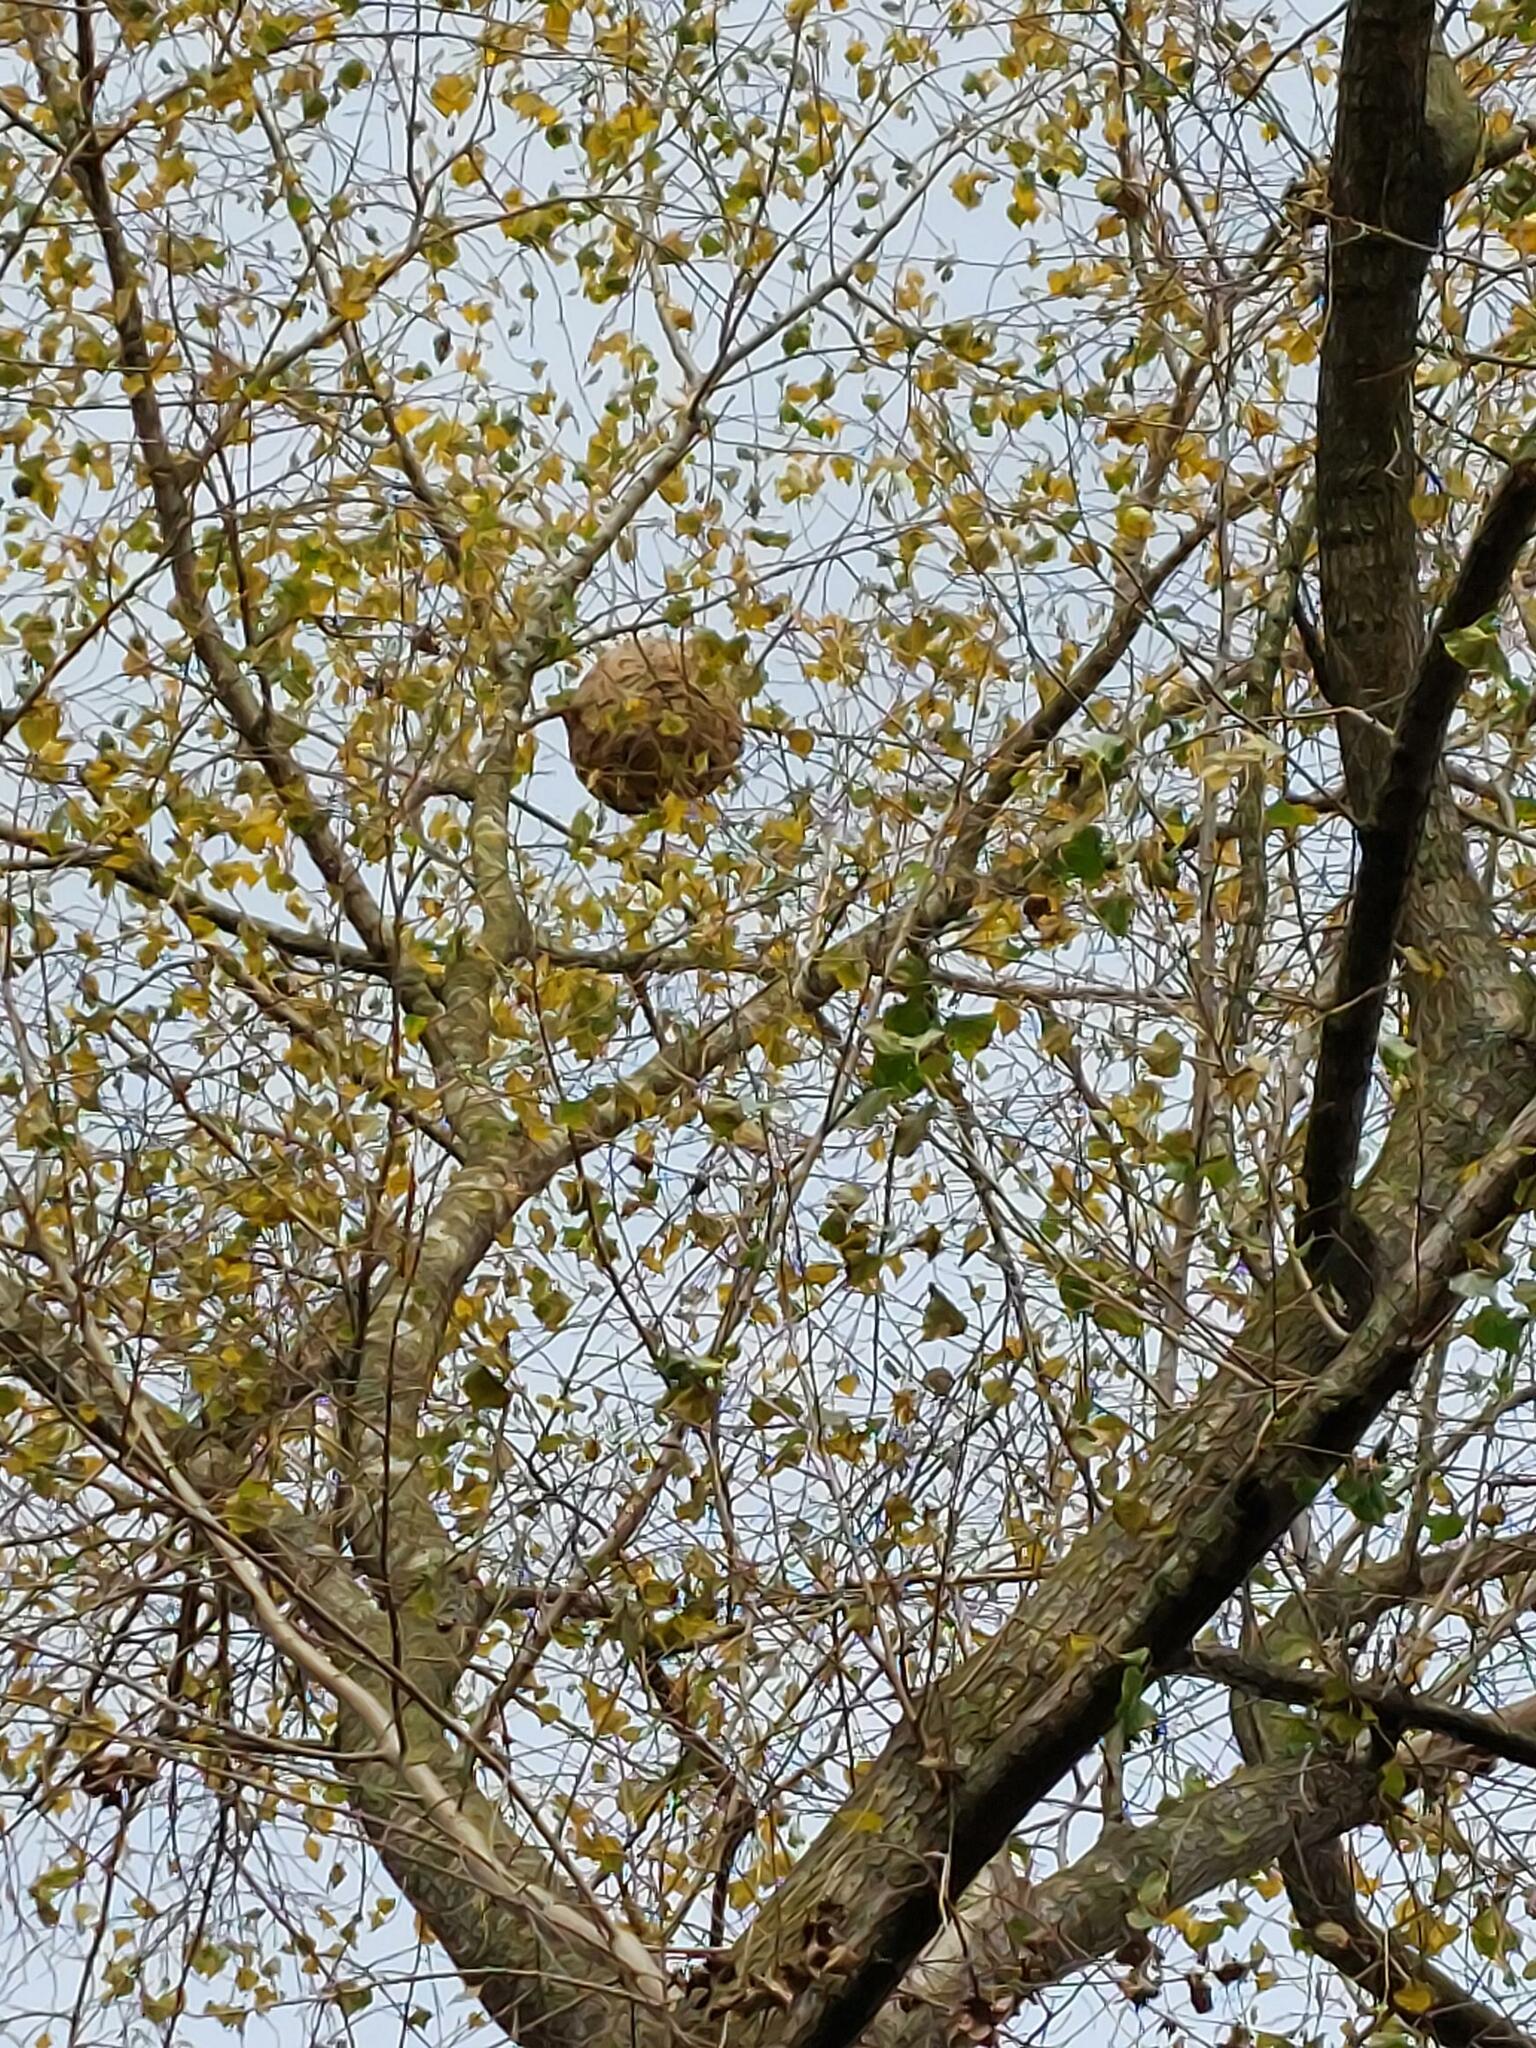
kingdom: Animalia
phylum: Arthropoda
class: Insecta
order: Hymenoptera
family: Vespidae
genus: Vespa
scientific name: Vespa velutina
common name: Asian hornet
